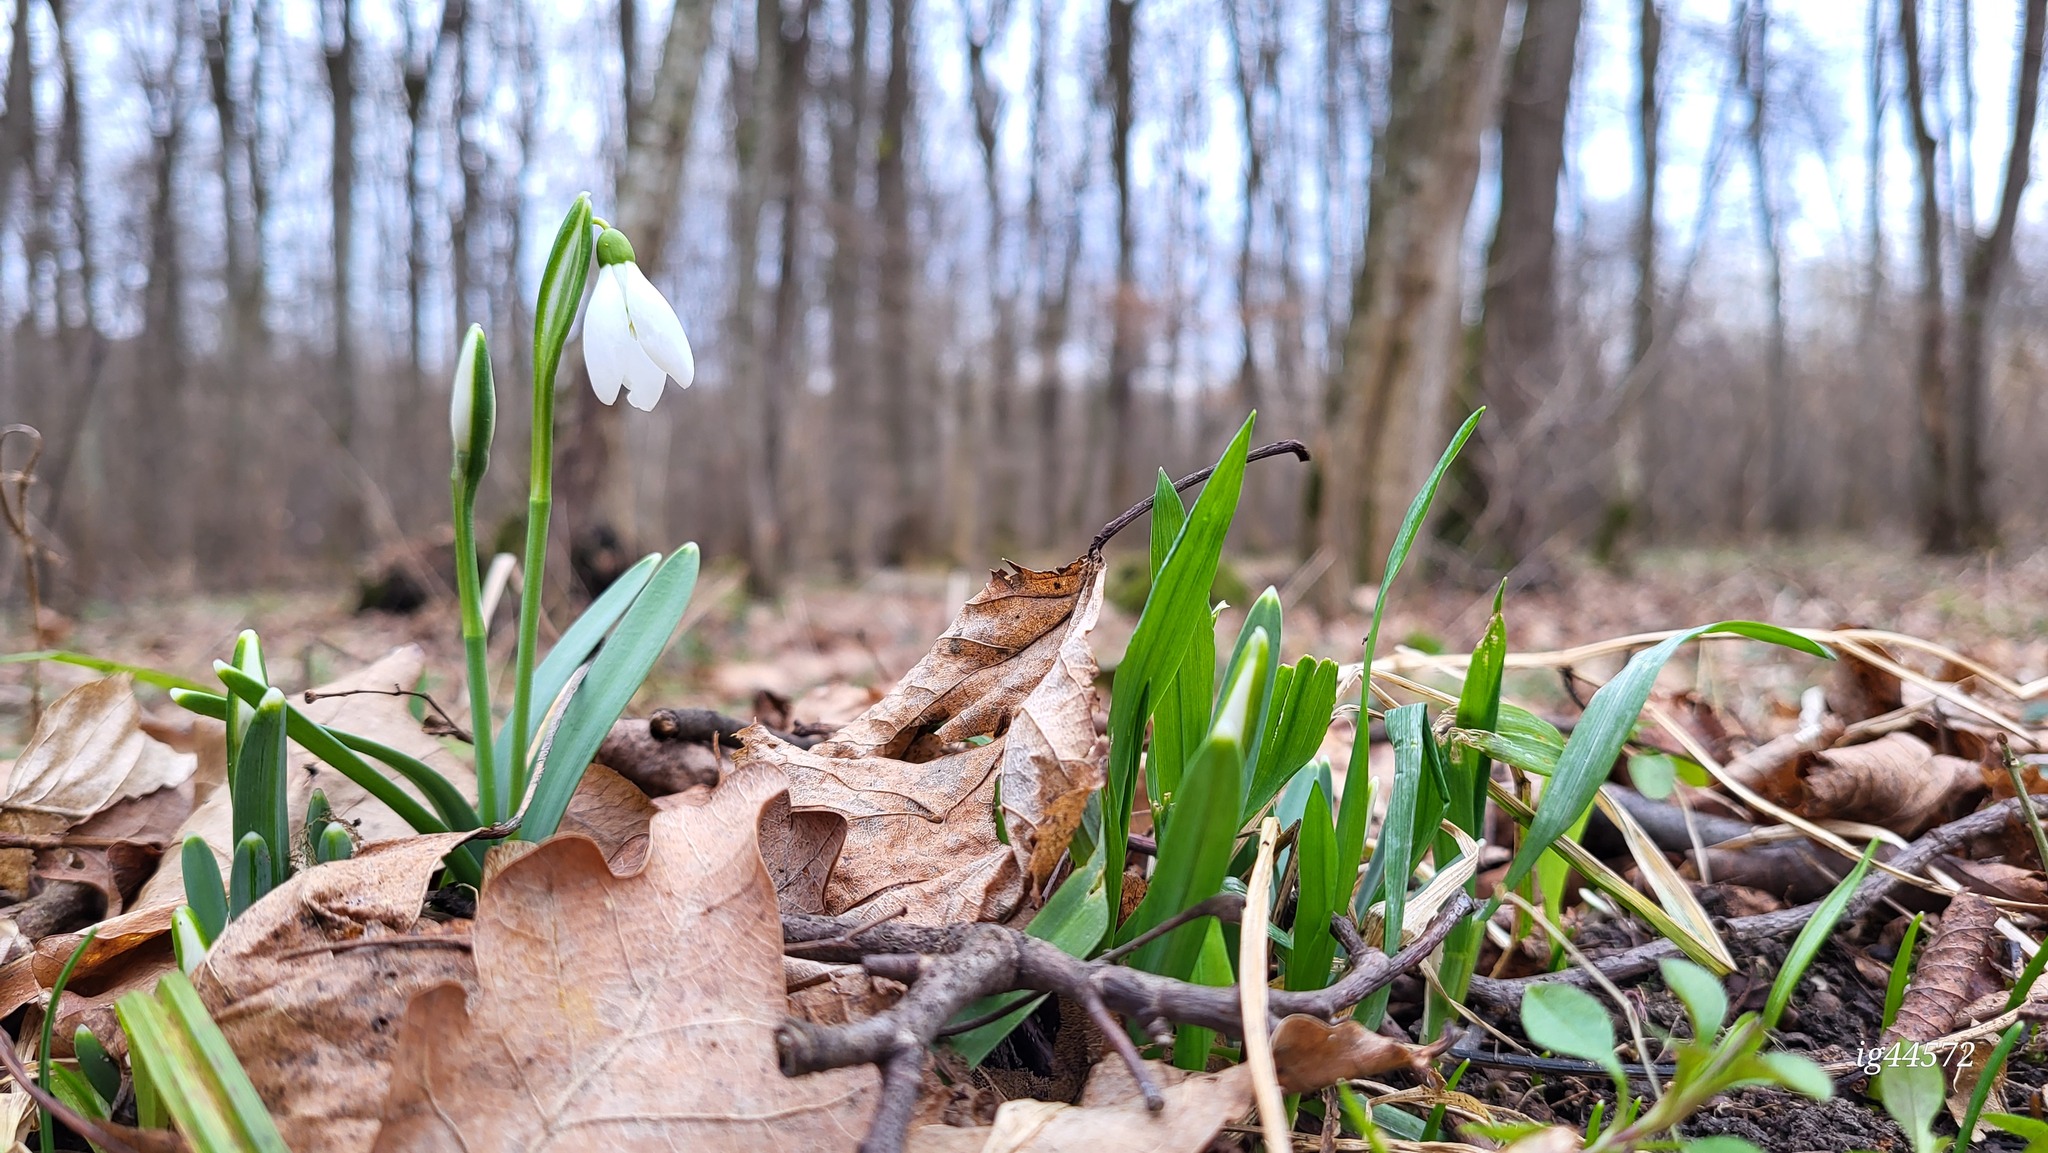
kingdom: Plantae
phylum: Tracheophyta
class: Liliopsida
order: Asparagales
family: Amaryllidaceae
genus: Galanthus
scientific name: Galanthus nivalis
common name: Snowdrop
